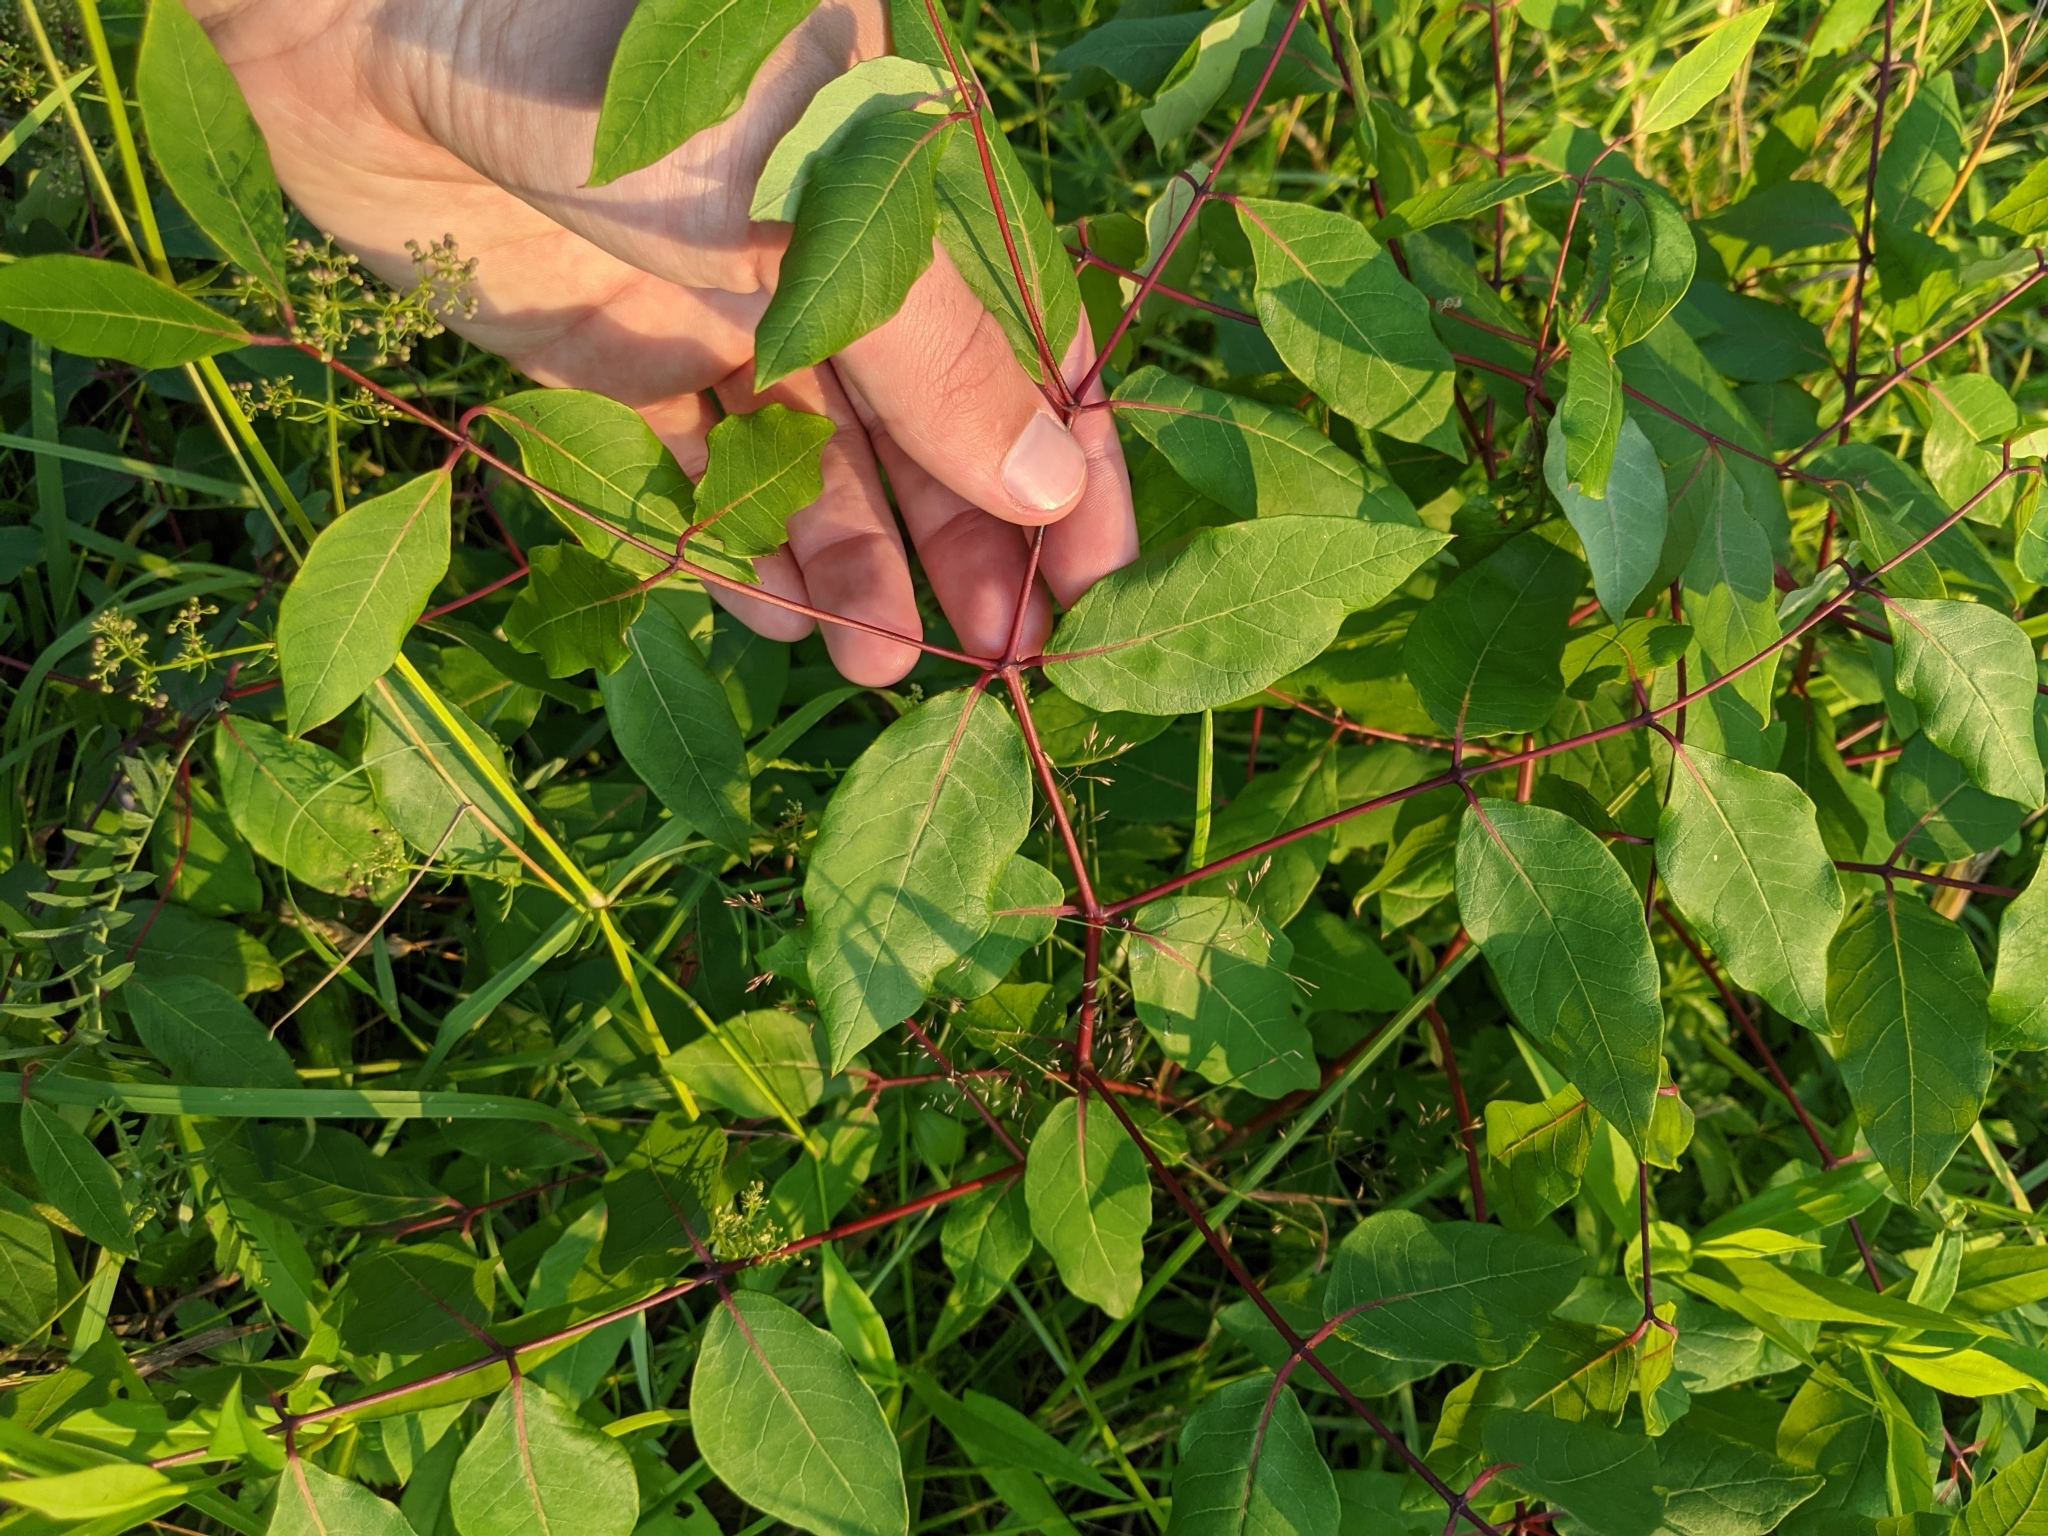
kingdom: Plantae
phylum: Tracheophyta
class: Magnoliopsida
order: Gentianales
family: Apocynaceae
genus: Apocynum
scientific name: Apocynum androsaemifolium
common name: Spreading dogbane
